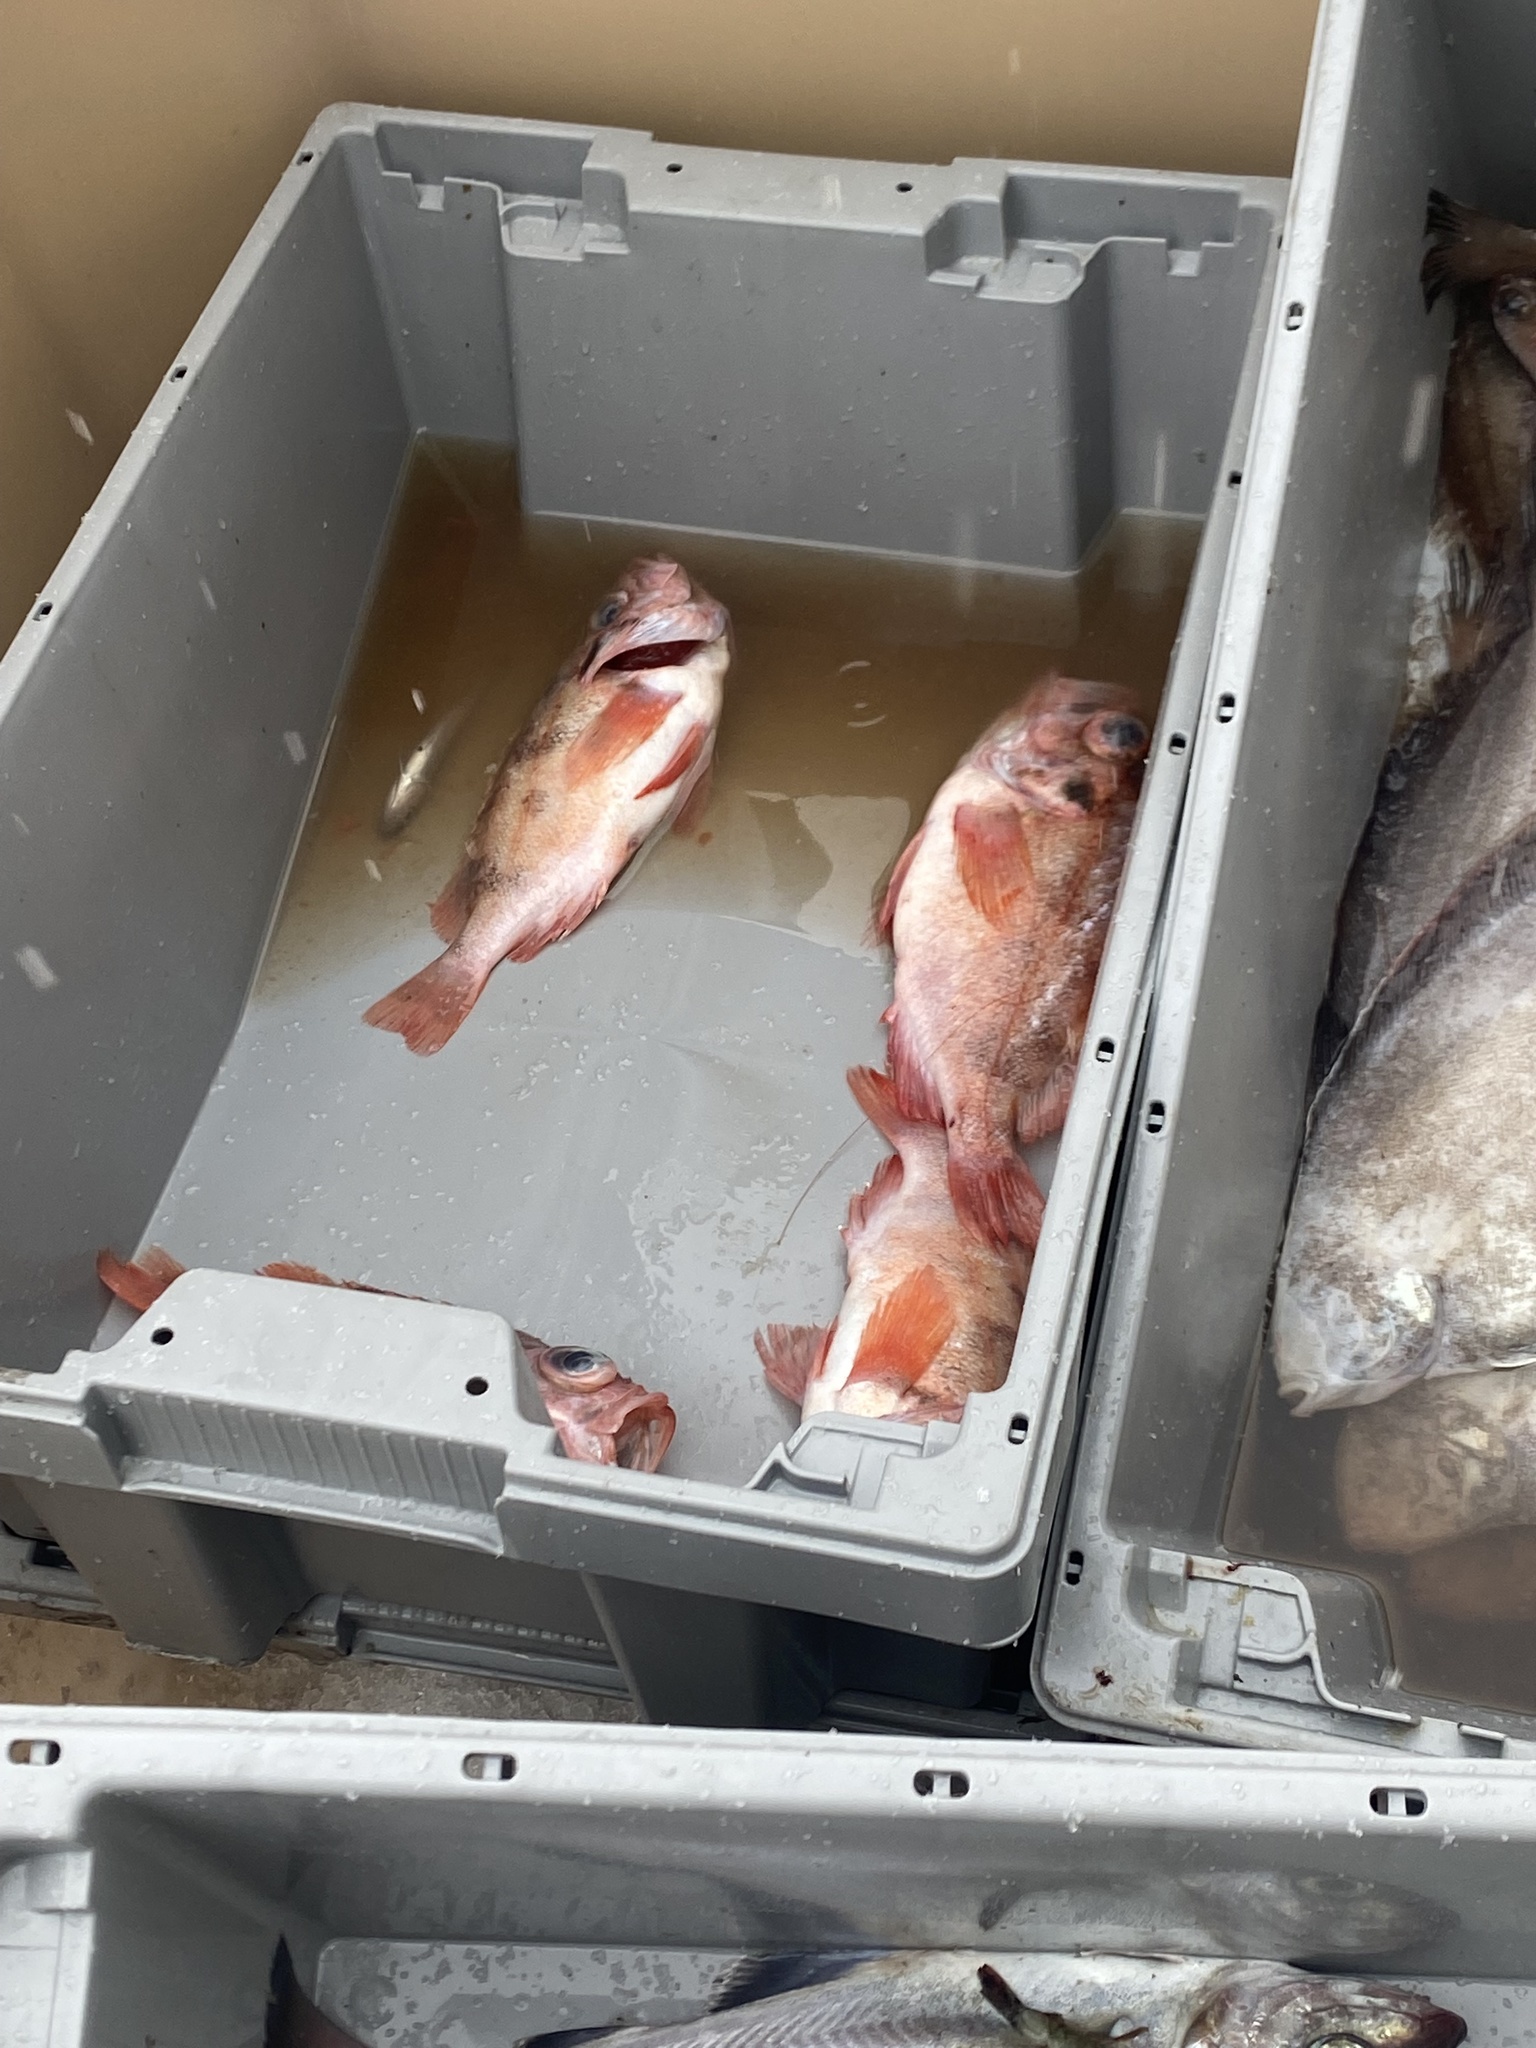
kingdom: Animalia
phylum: Chordata
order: Scorpaeniformes
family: Sebastidae
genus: Sebastes
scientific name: Sebastes norvegicus
